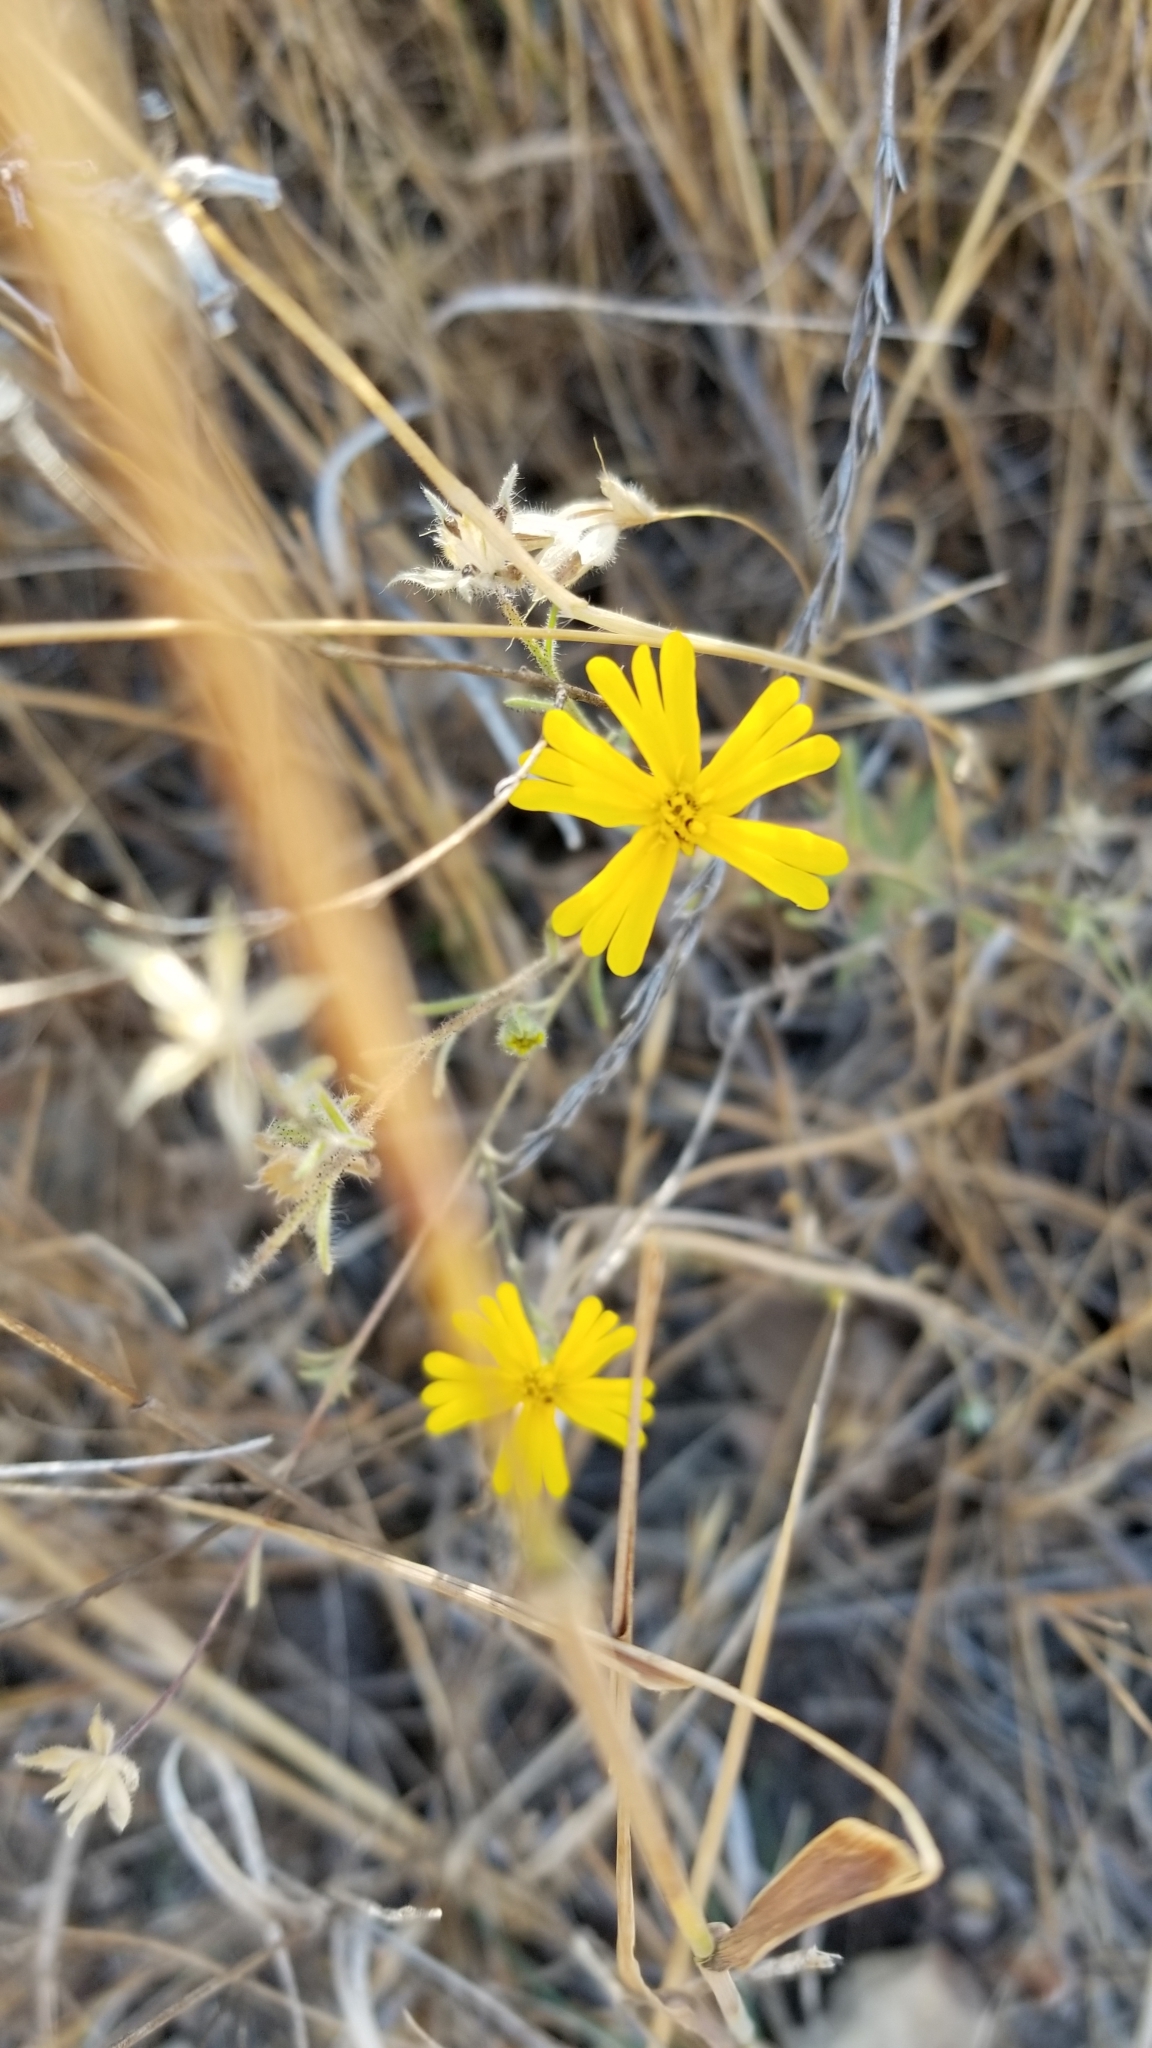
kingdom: Plantae
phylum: Tracheophyta
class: Magnoliopsida
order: Asterales
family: Asteraceae
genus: Madia
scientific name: Madia elegans
